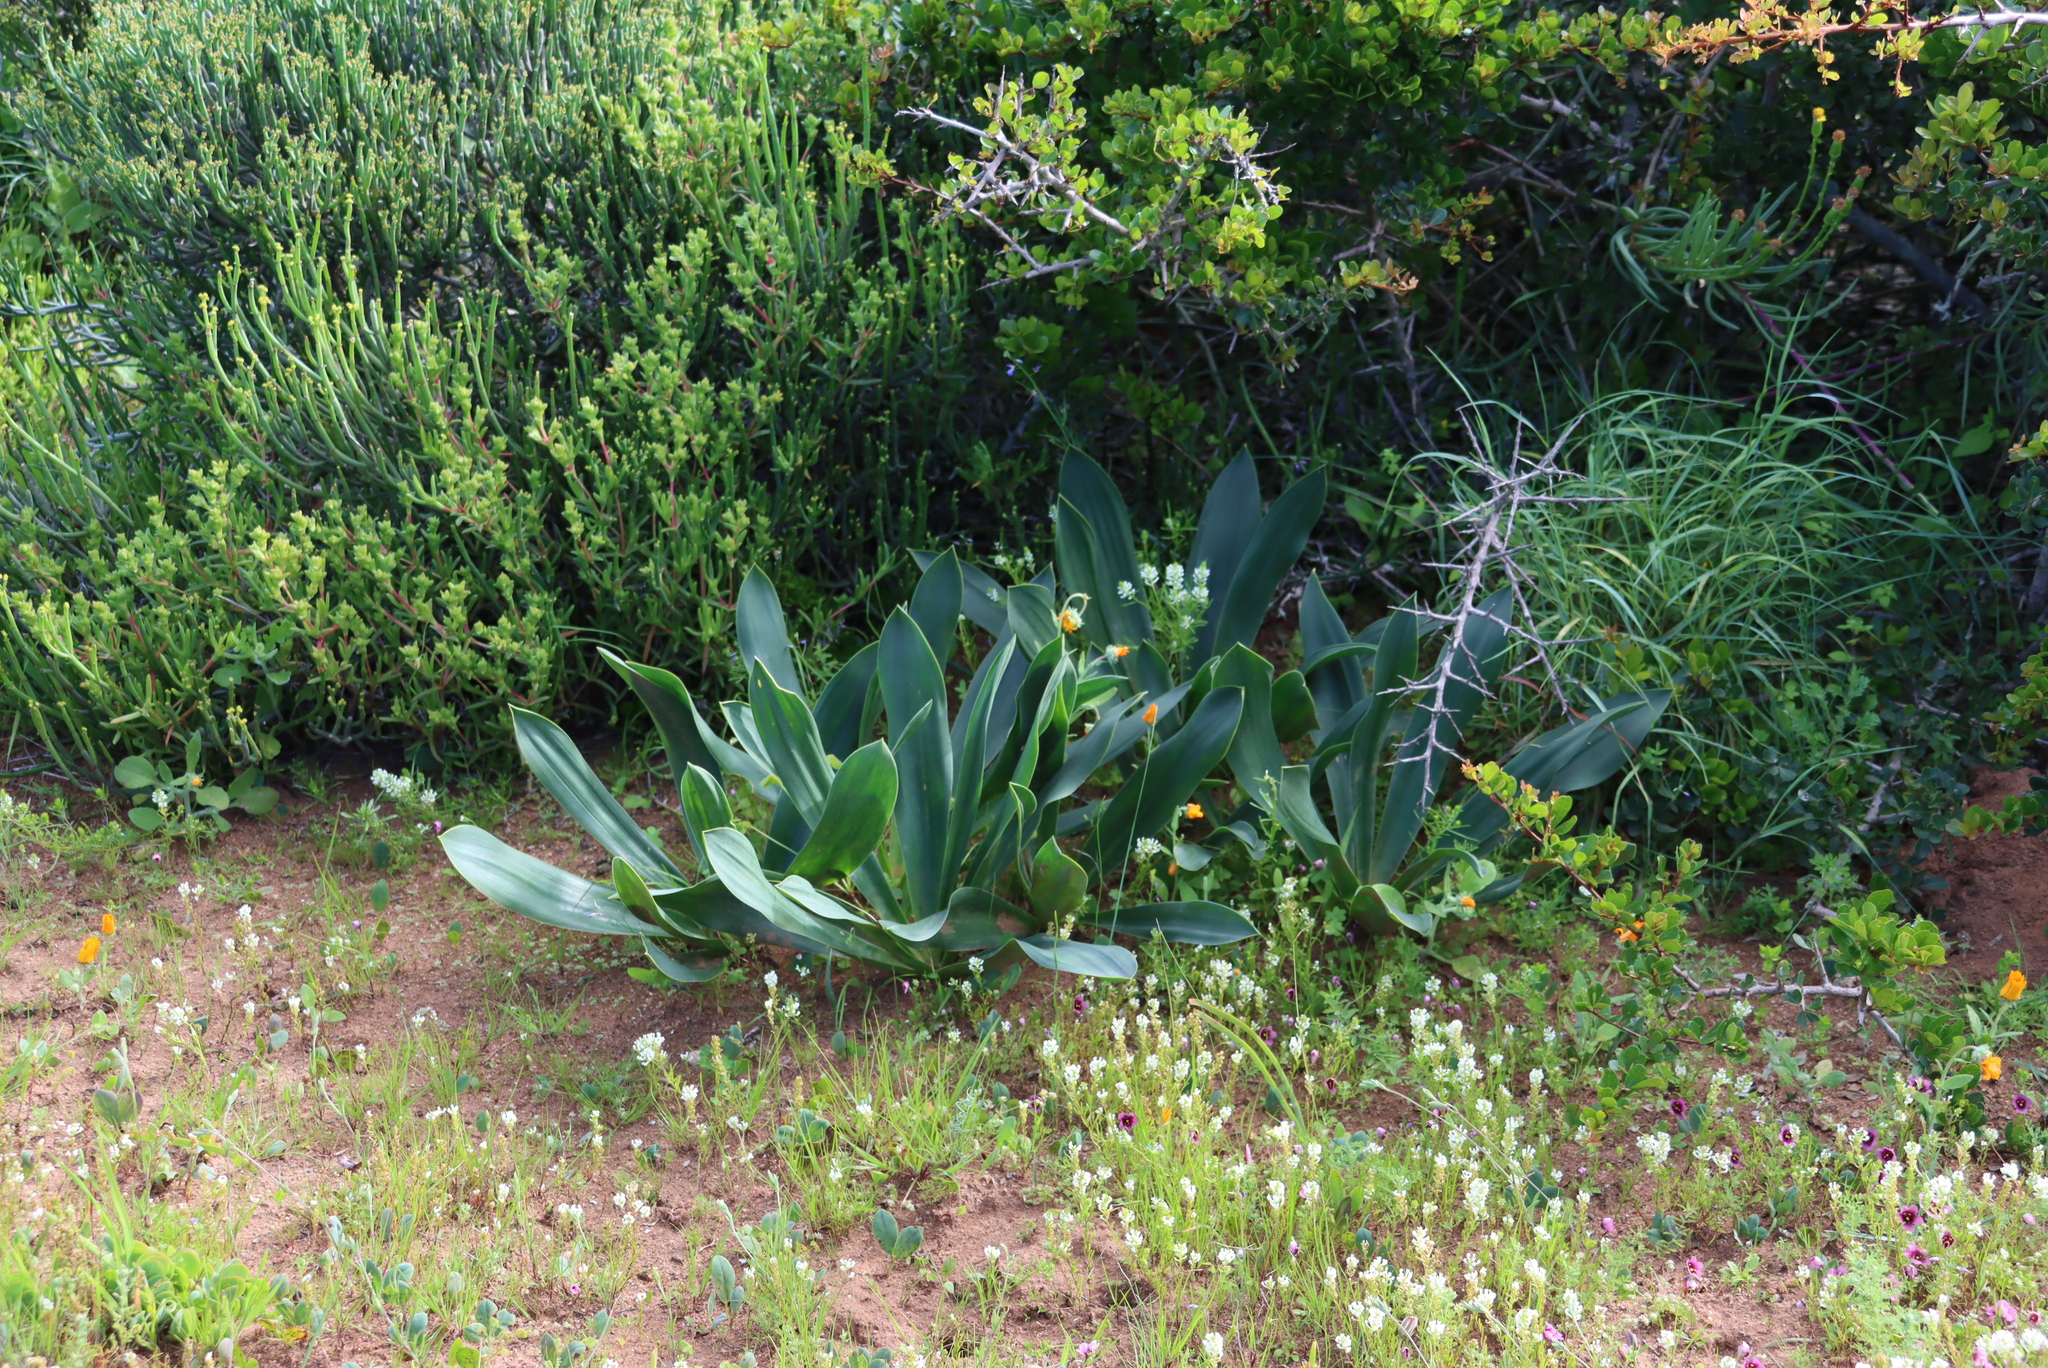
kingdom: Plantae
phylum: Tracheophyta
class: Liliopsida
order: Asparagales
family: Asparagaceae
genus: Drimia
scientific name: Drimia capensis
